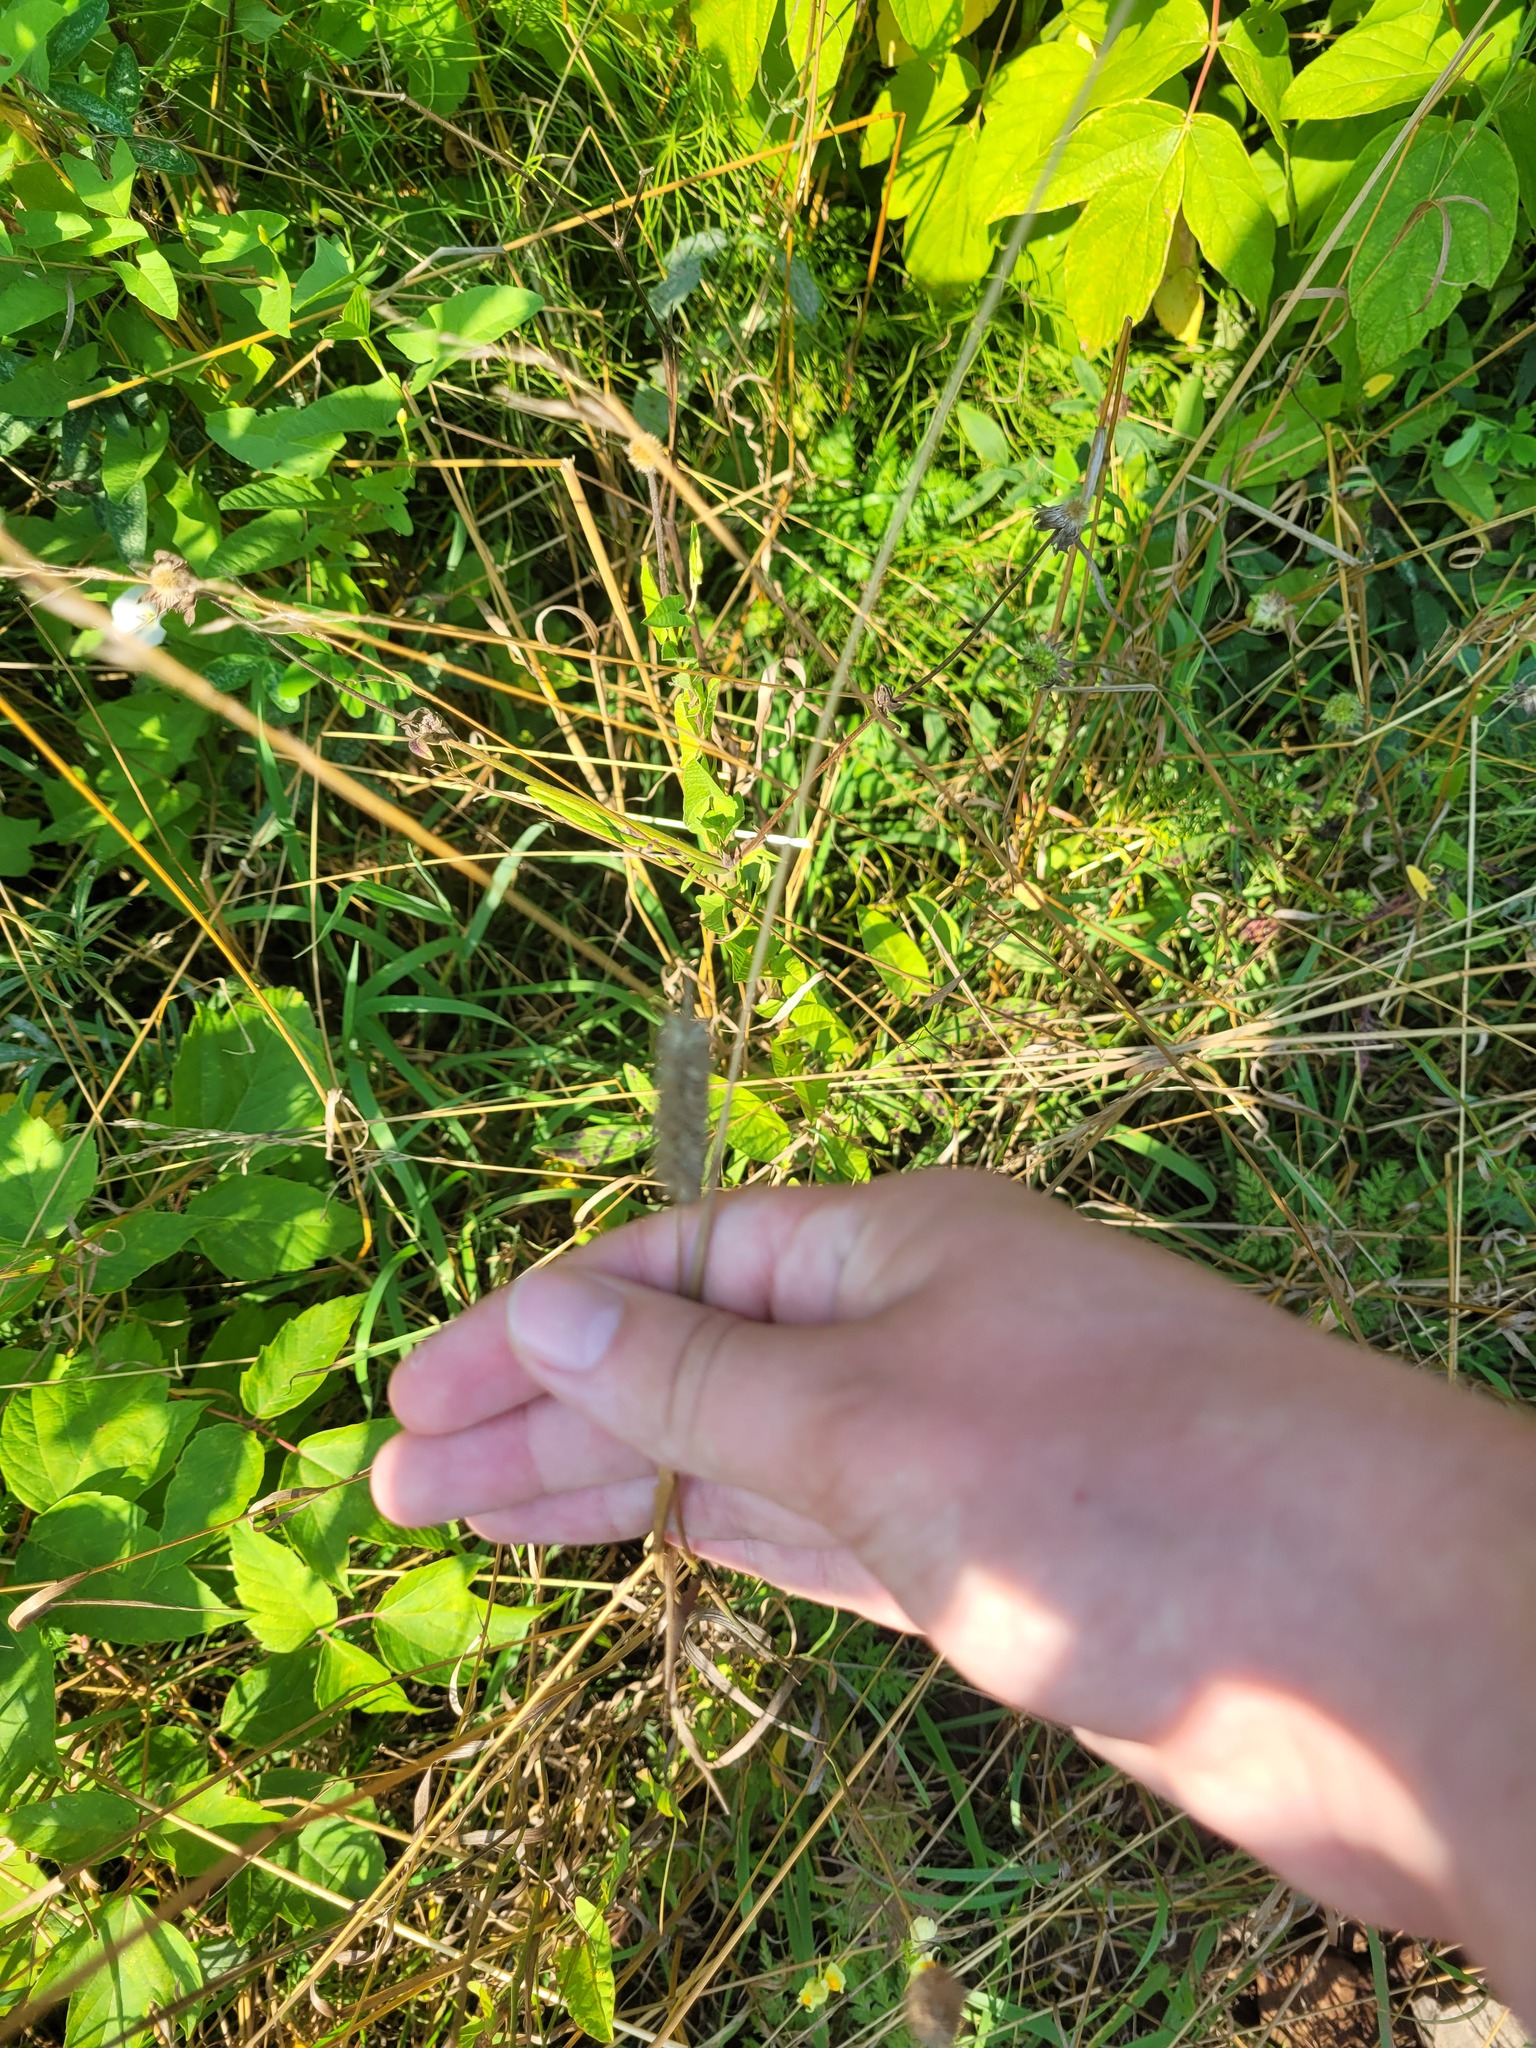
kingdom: Plantae
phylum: Tracheophyta
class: Liliopsida
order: Poales
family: Poaceae
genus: Phleum
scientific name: Phleum pratense
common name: Timothy grass
